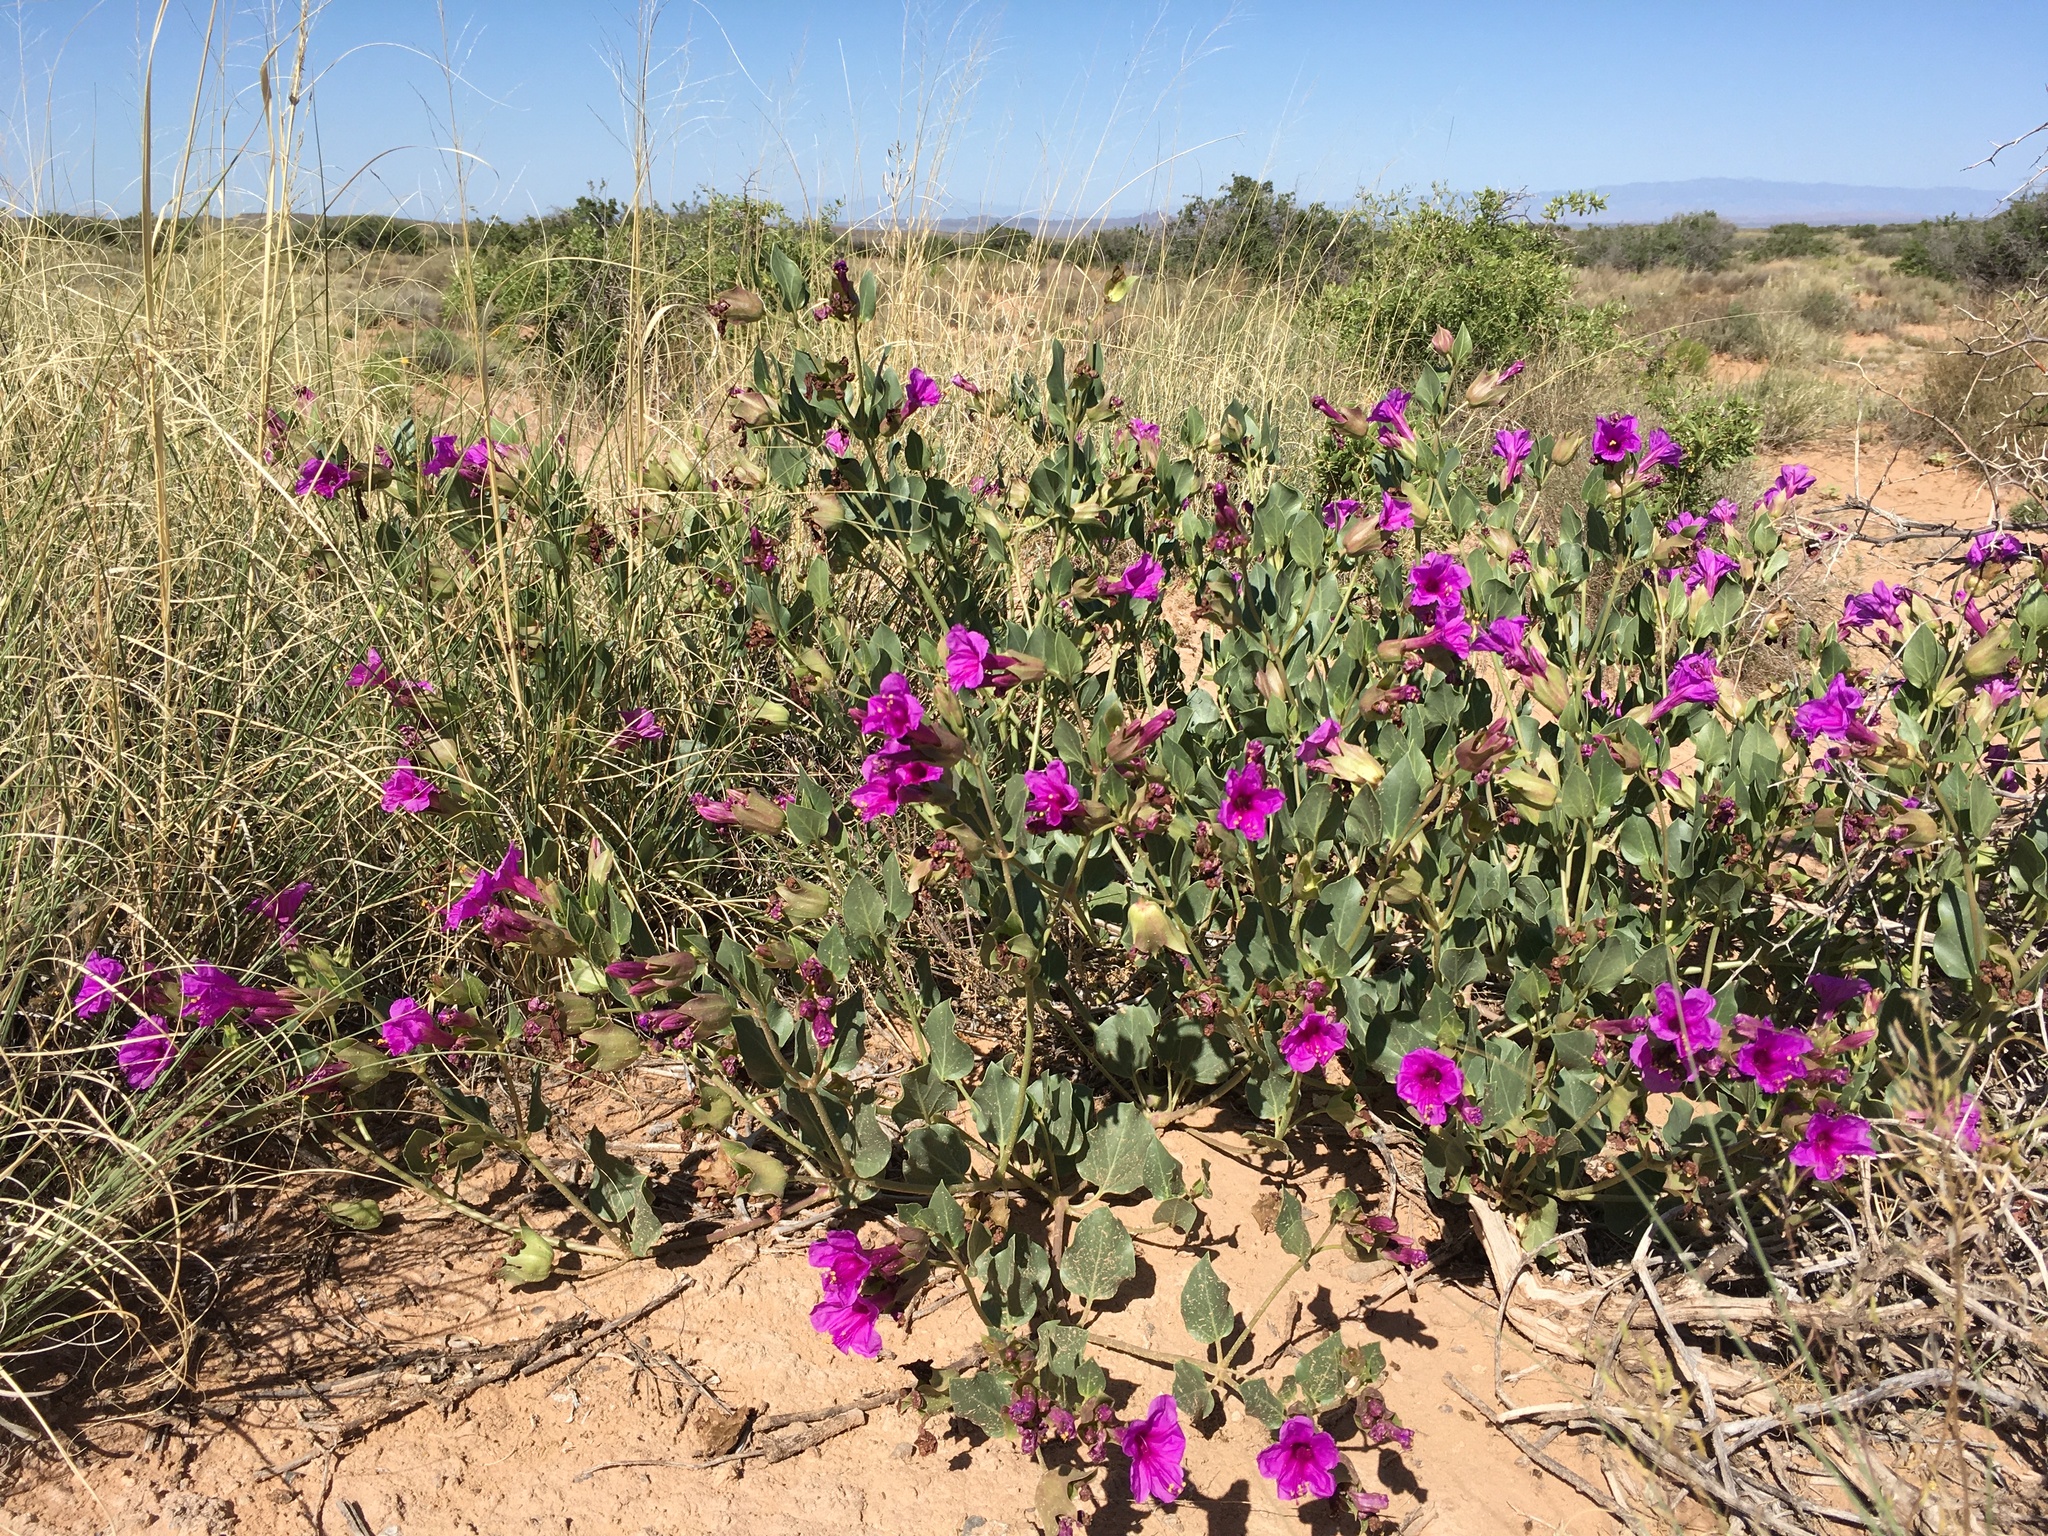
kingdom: Plantae
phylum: Tracheophyta
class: Magnoliopsida
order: Caryophyllales
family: Nyctaginaceae
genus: Mirabilis
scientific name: Mirabilis multiflora
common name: Froebel's four-o'clock
